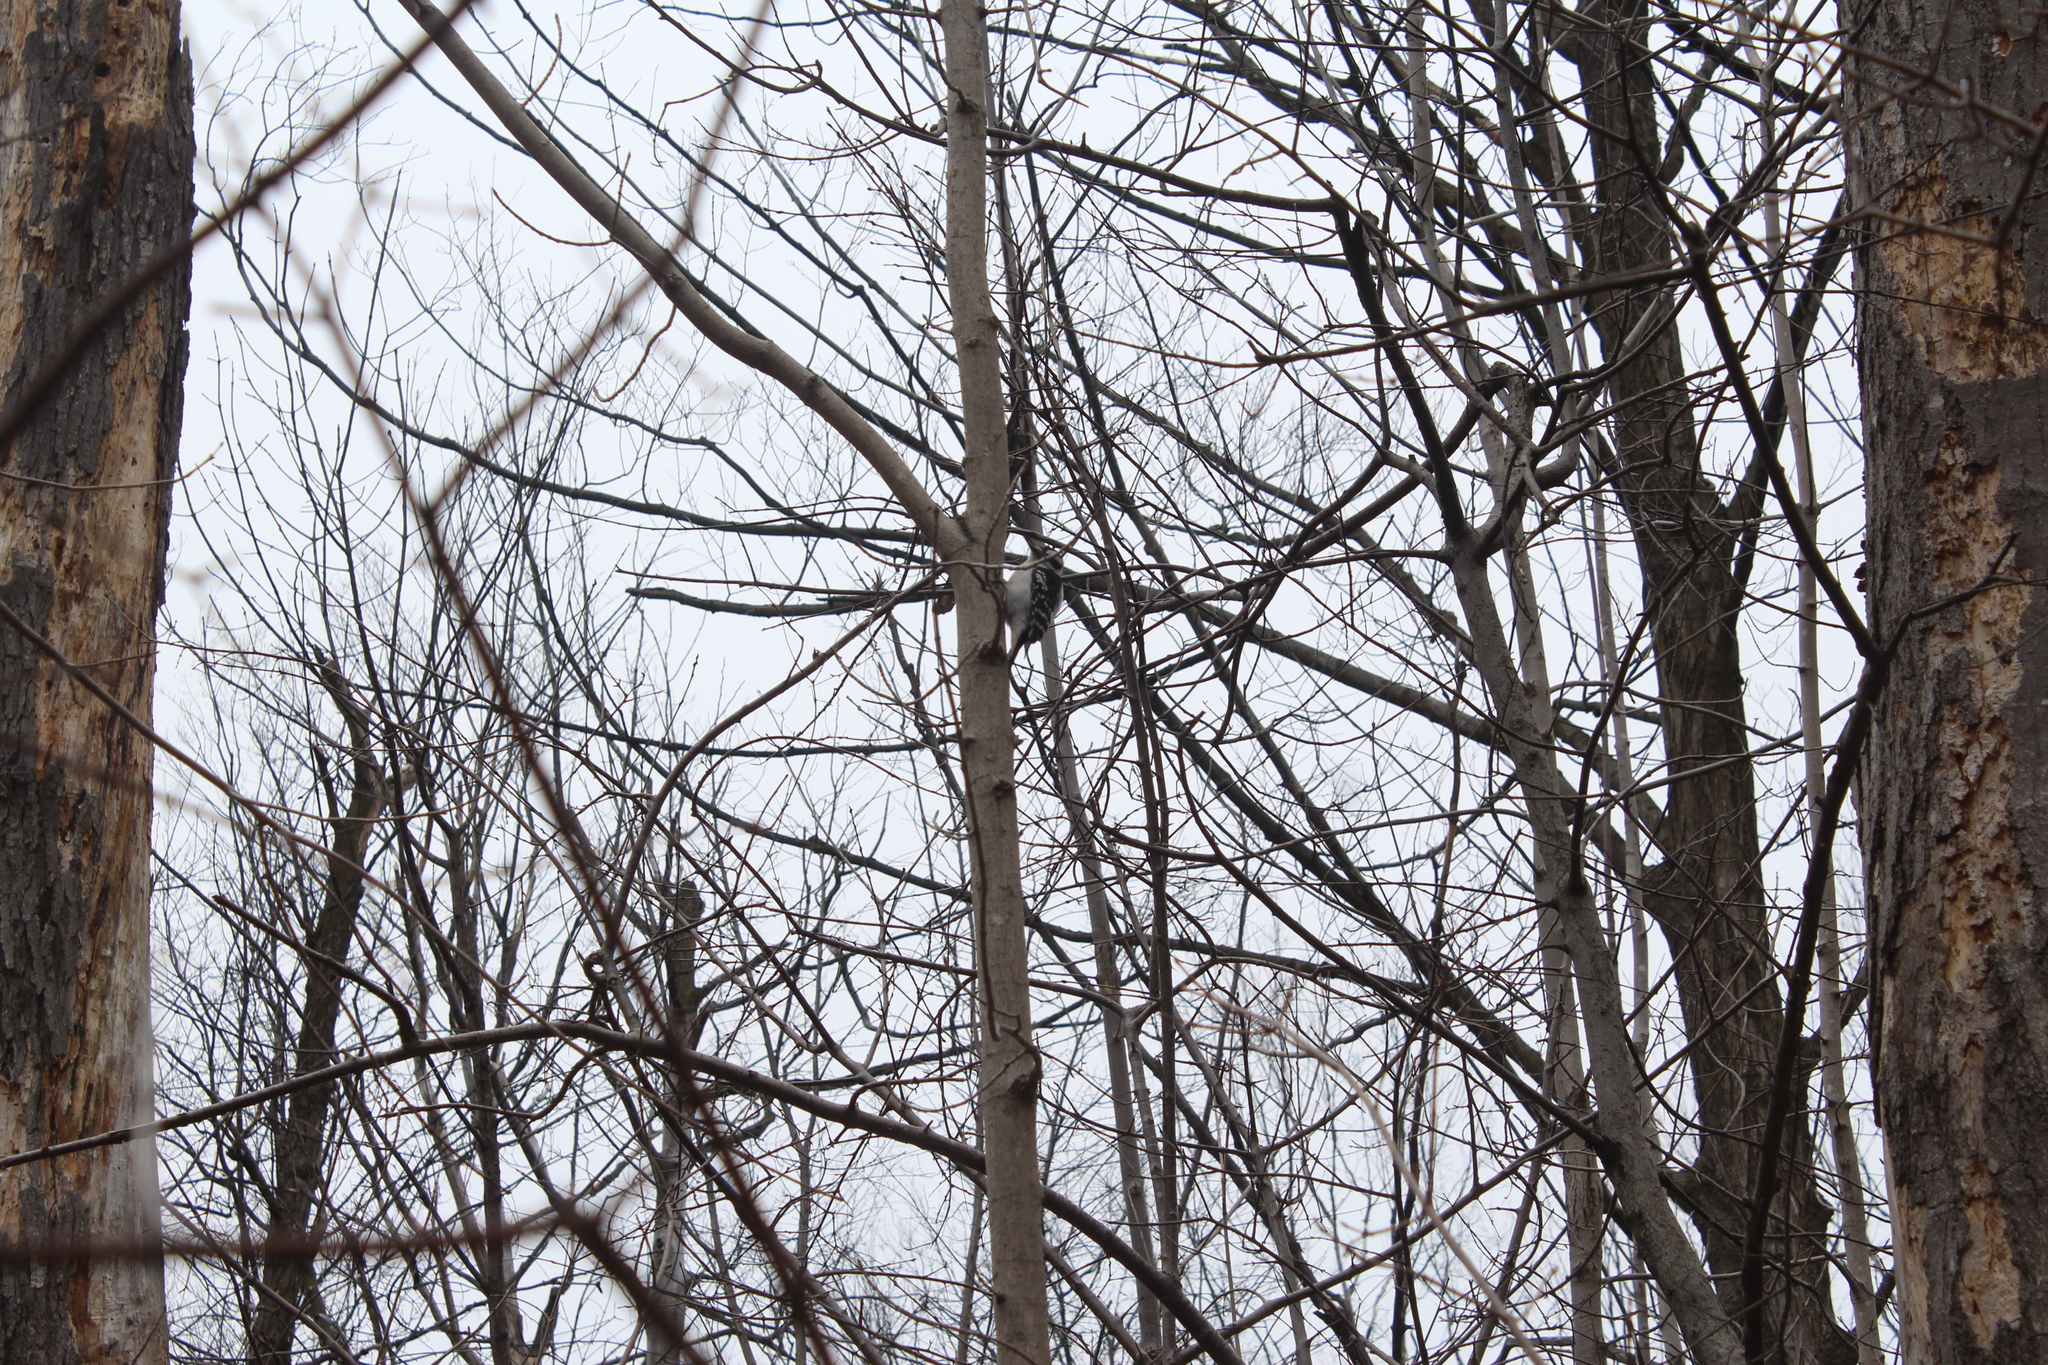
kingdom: Animalia
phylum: Chordata
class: Aves
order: Piciformes
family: Picidae
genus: Dryobates
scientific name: Dryobates pubescens
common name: Downy woodpecker
